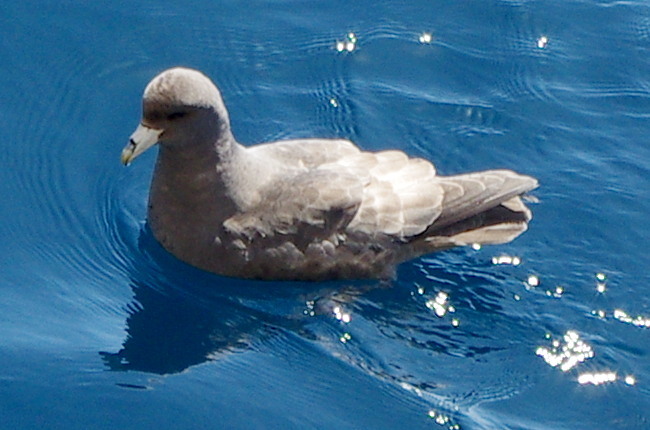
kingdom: Animalia
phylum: Chordata
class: Aves
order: Procellariiformes
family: Procellariidae
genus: Fulmarus
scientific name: Fulmarus glacialis
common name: Northern fulmar
